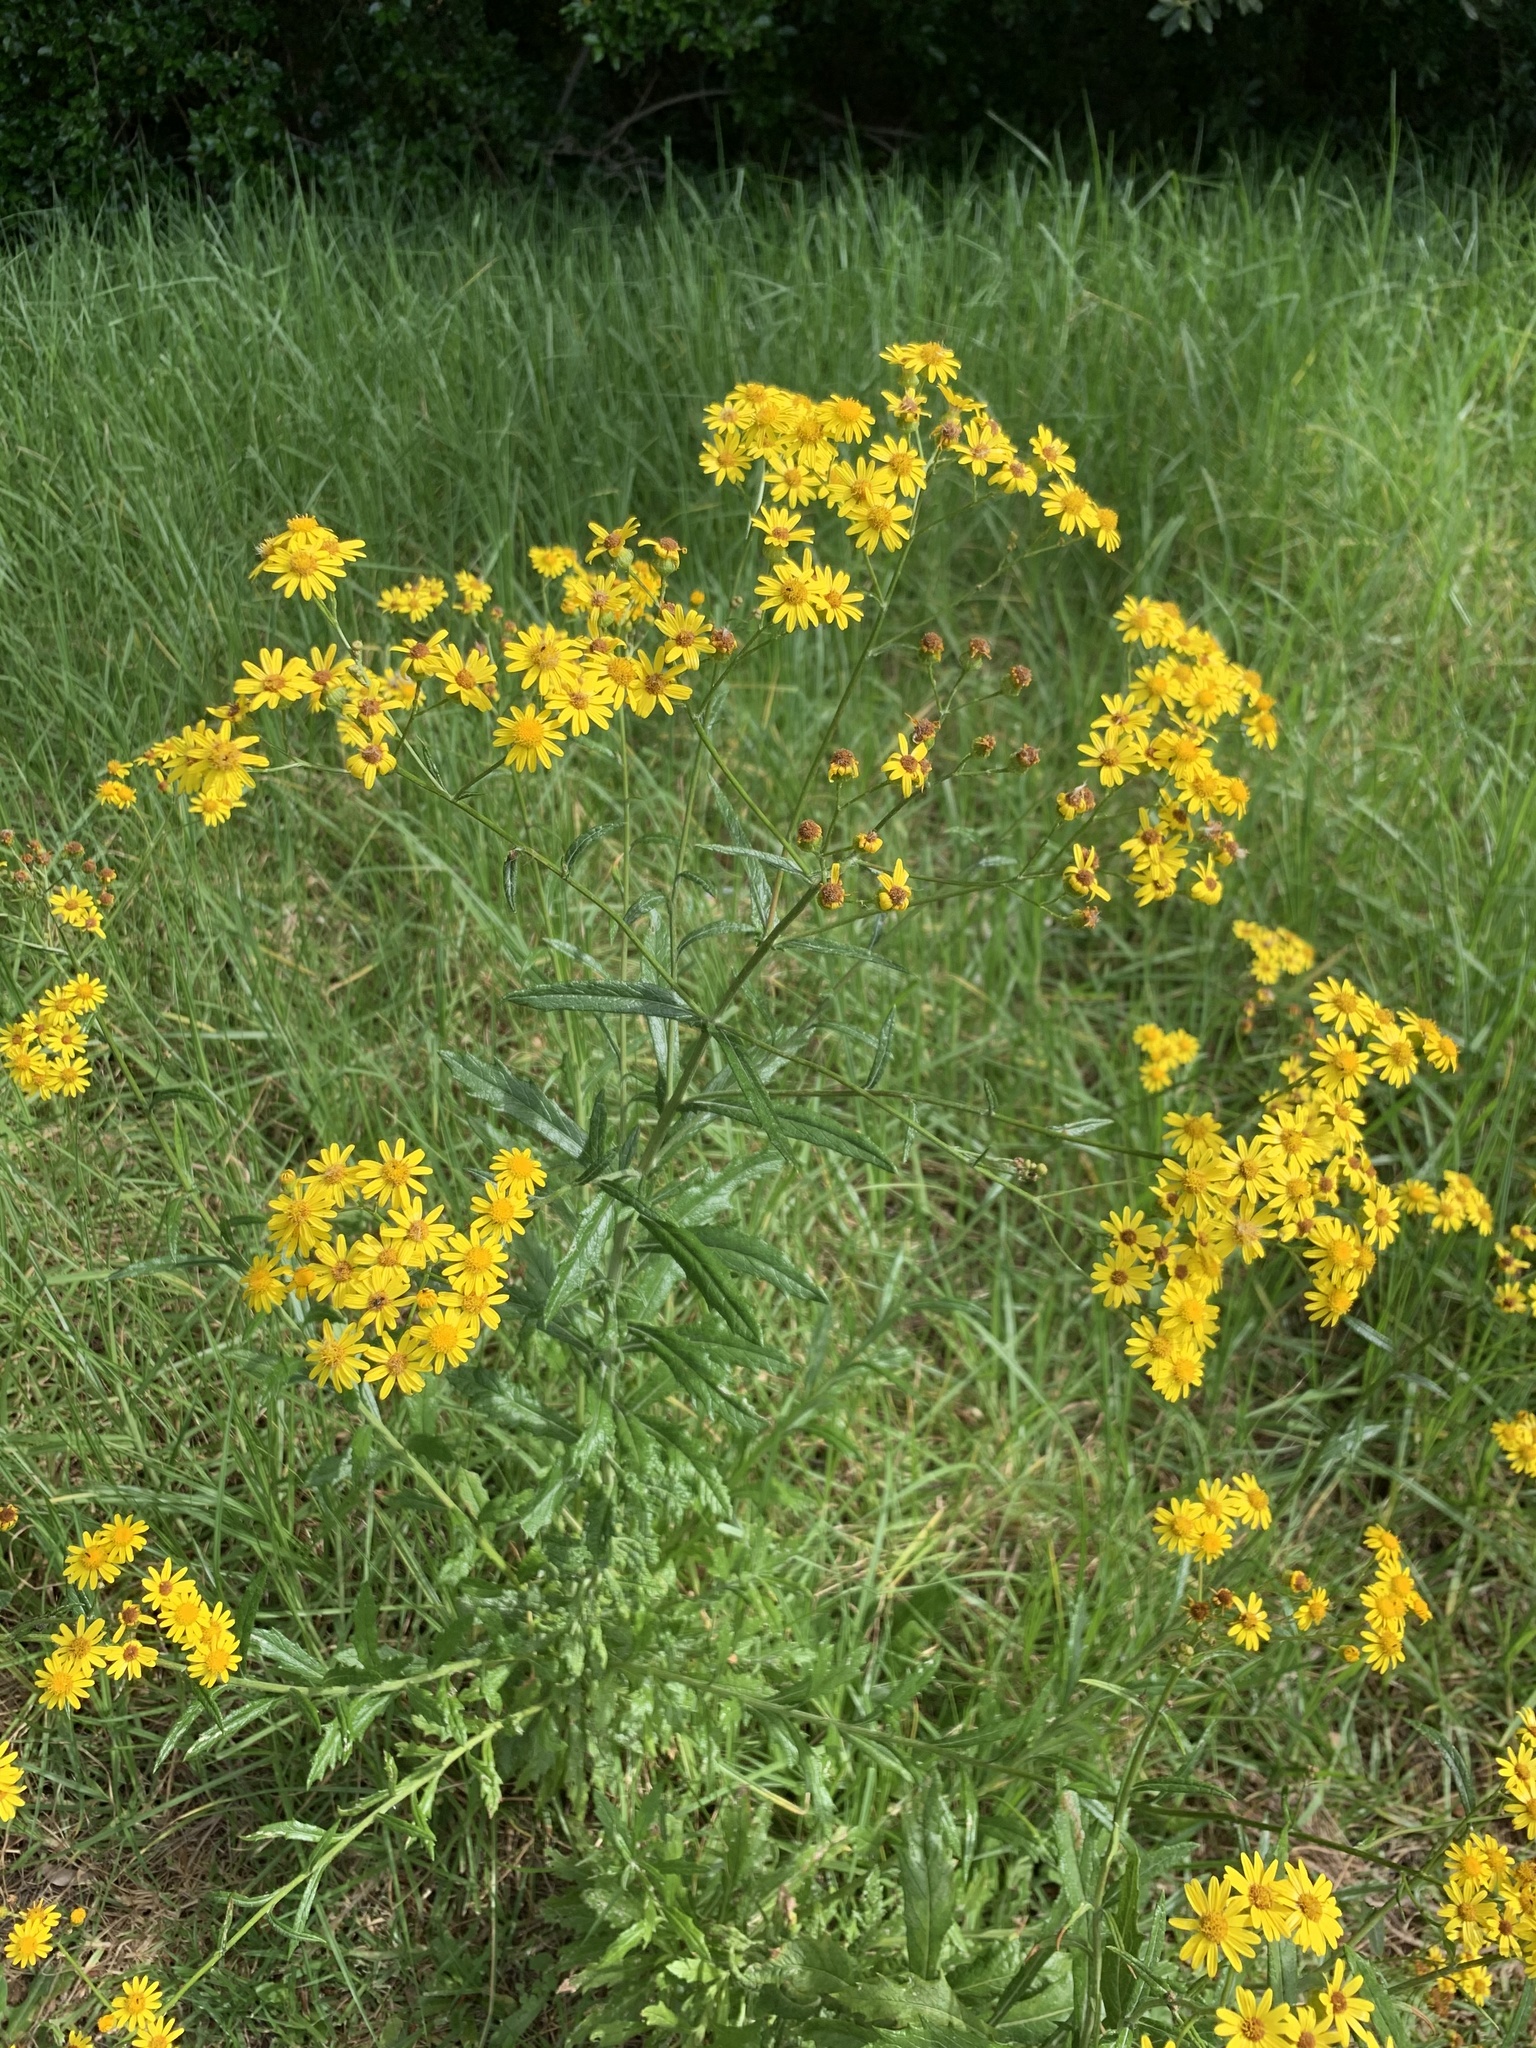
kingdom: Plantae
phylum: Tracheophyta
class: Magnoliopsida
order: Asterales
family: Asteraceae
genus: Senecio
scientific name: Senecio pterophorus
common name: Shoddy ragwort
